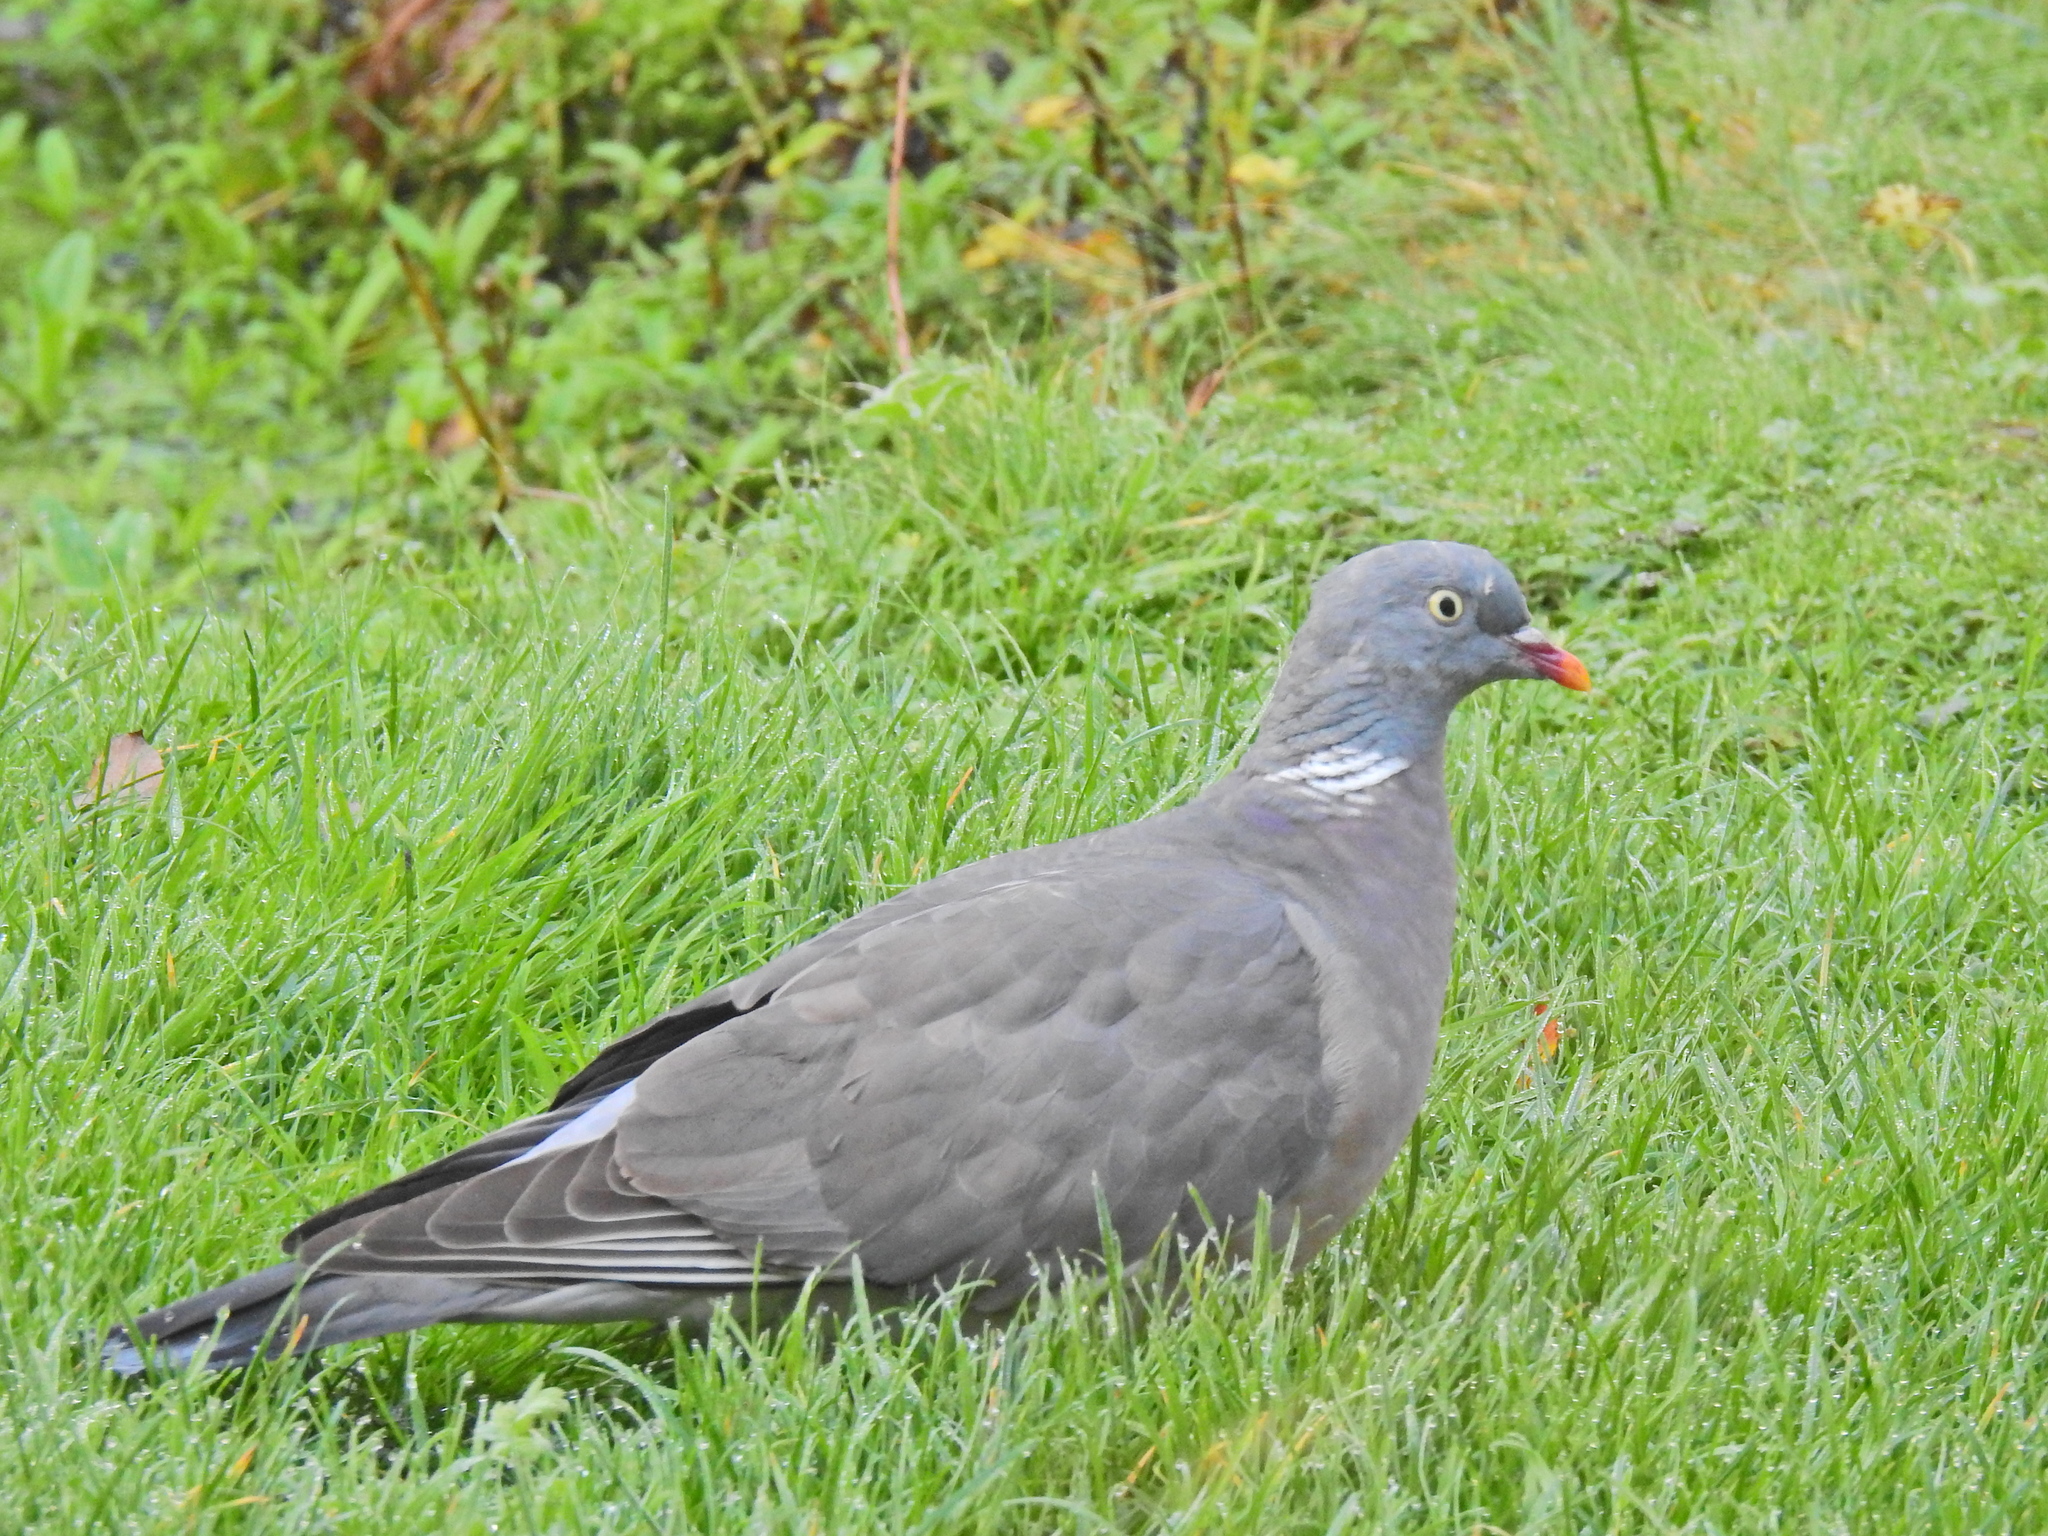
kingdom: Animalia
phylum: Chordata
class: Aves
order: Columbiformes
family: Columbidae
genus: Columba
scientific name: Columba palumbus
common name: Common wood pigeon
